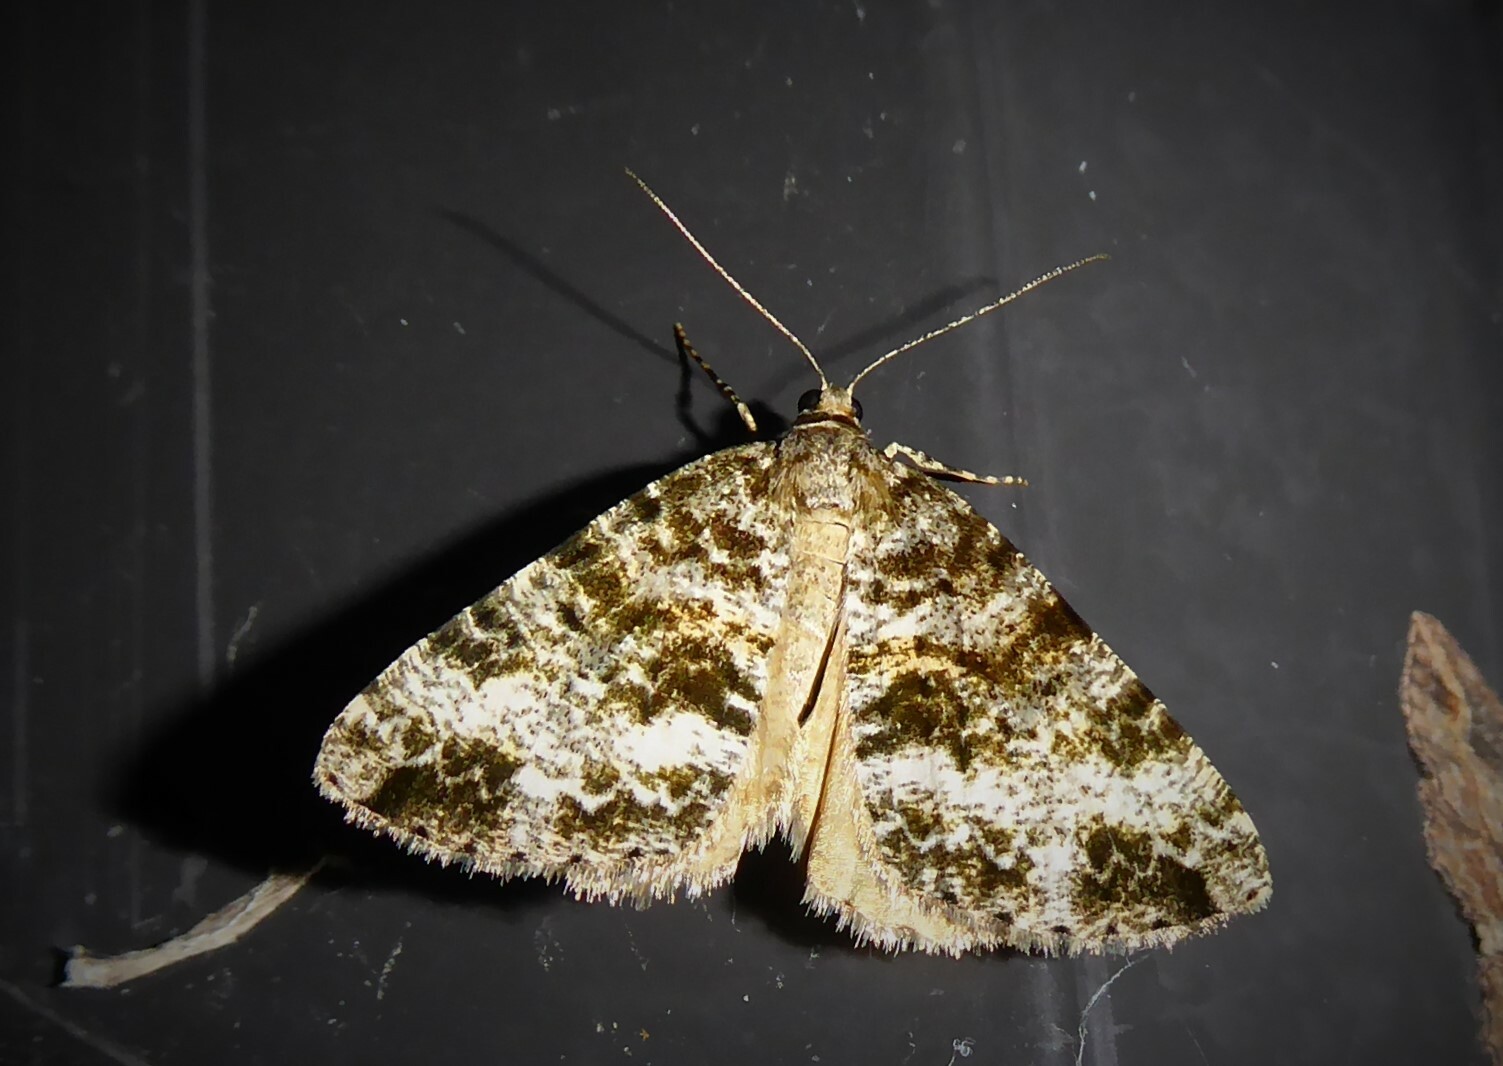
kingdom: Animalia
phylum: Arthropoda
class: Insecta
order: Lepidoptera
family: Geometridae
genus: Pseudocoremia
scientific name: Pseudocoremia lactiflua
